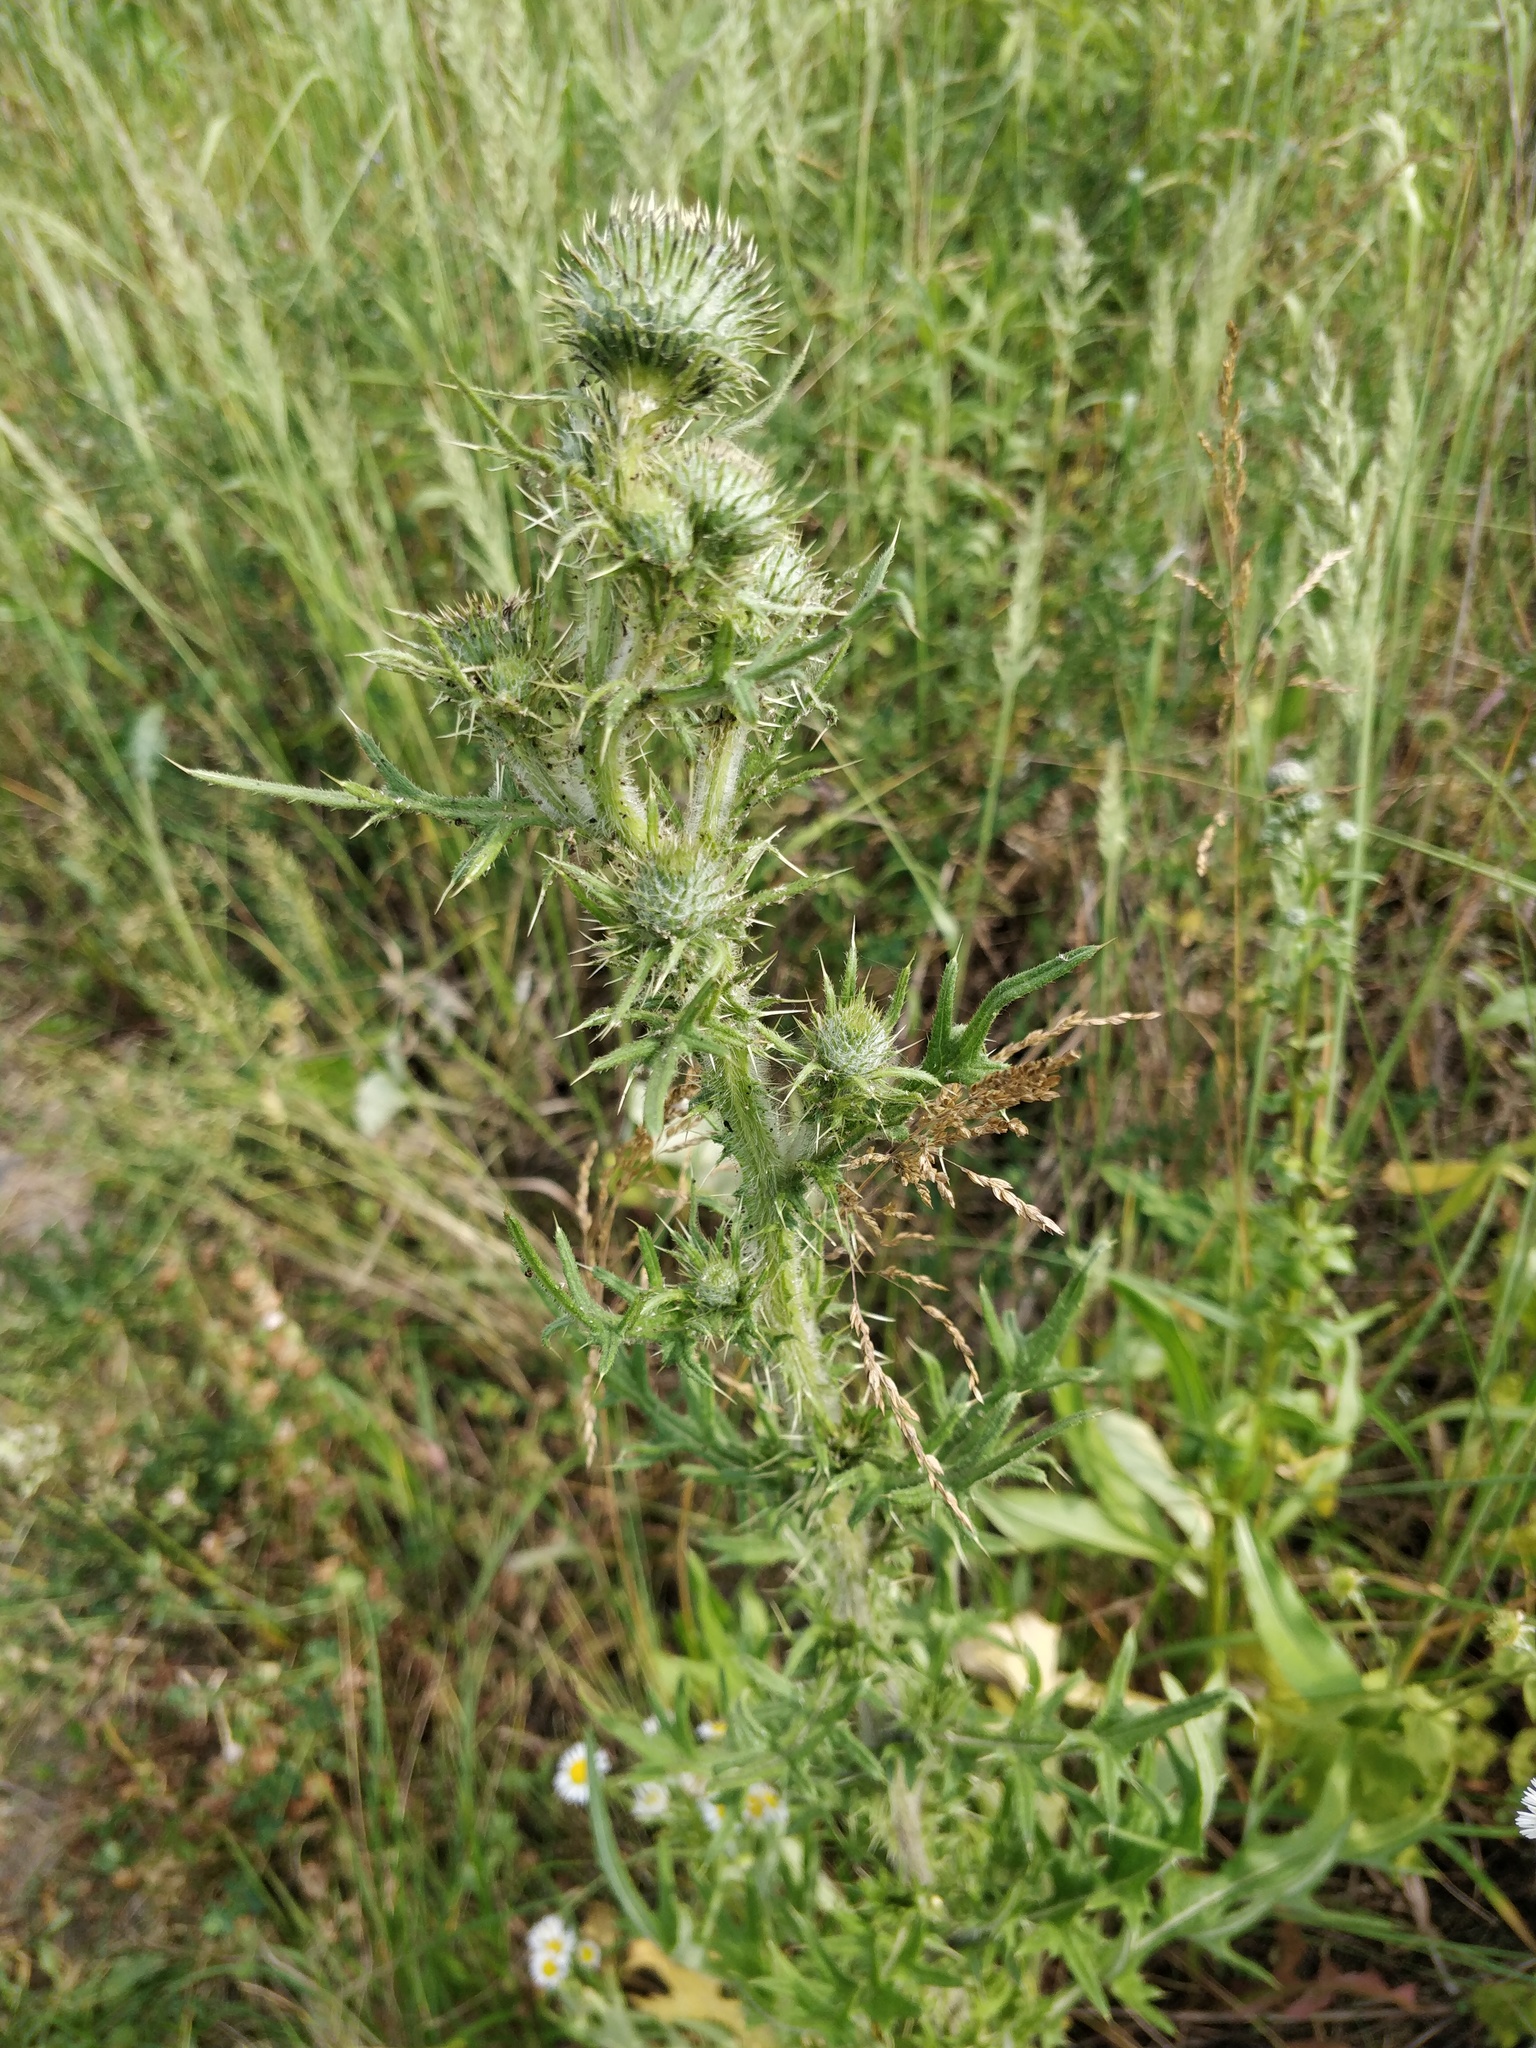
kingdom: Plantae
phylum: Tracheophyta
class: Magnoliopsida
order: Asterales
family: Asteraceae
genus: Cirsium
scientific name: Cirsium vulgare
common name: Bull thistle
